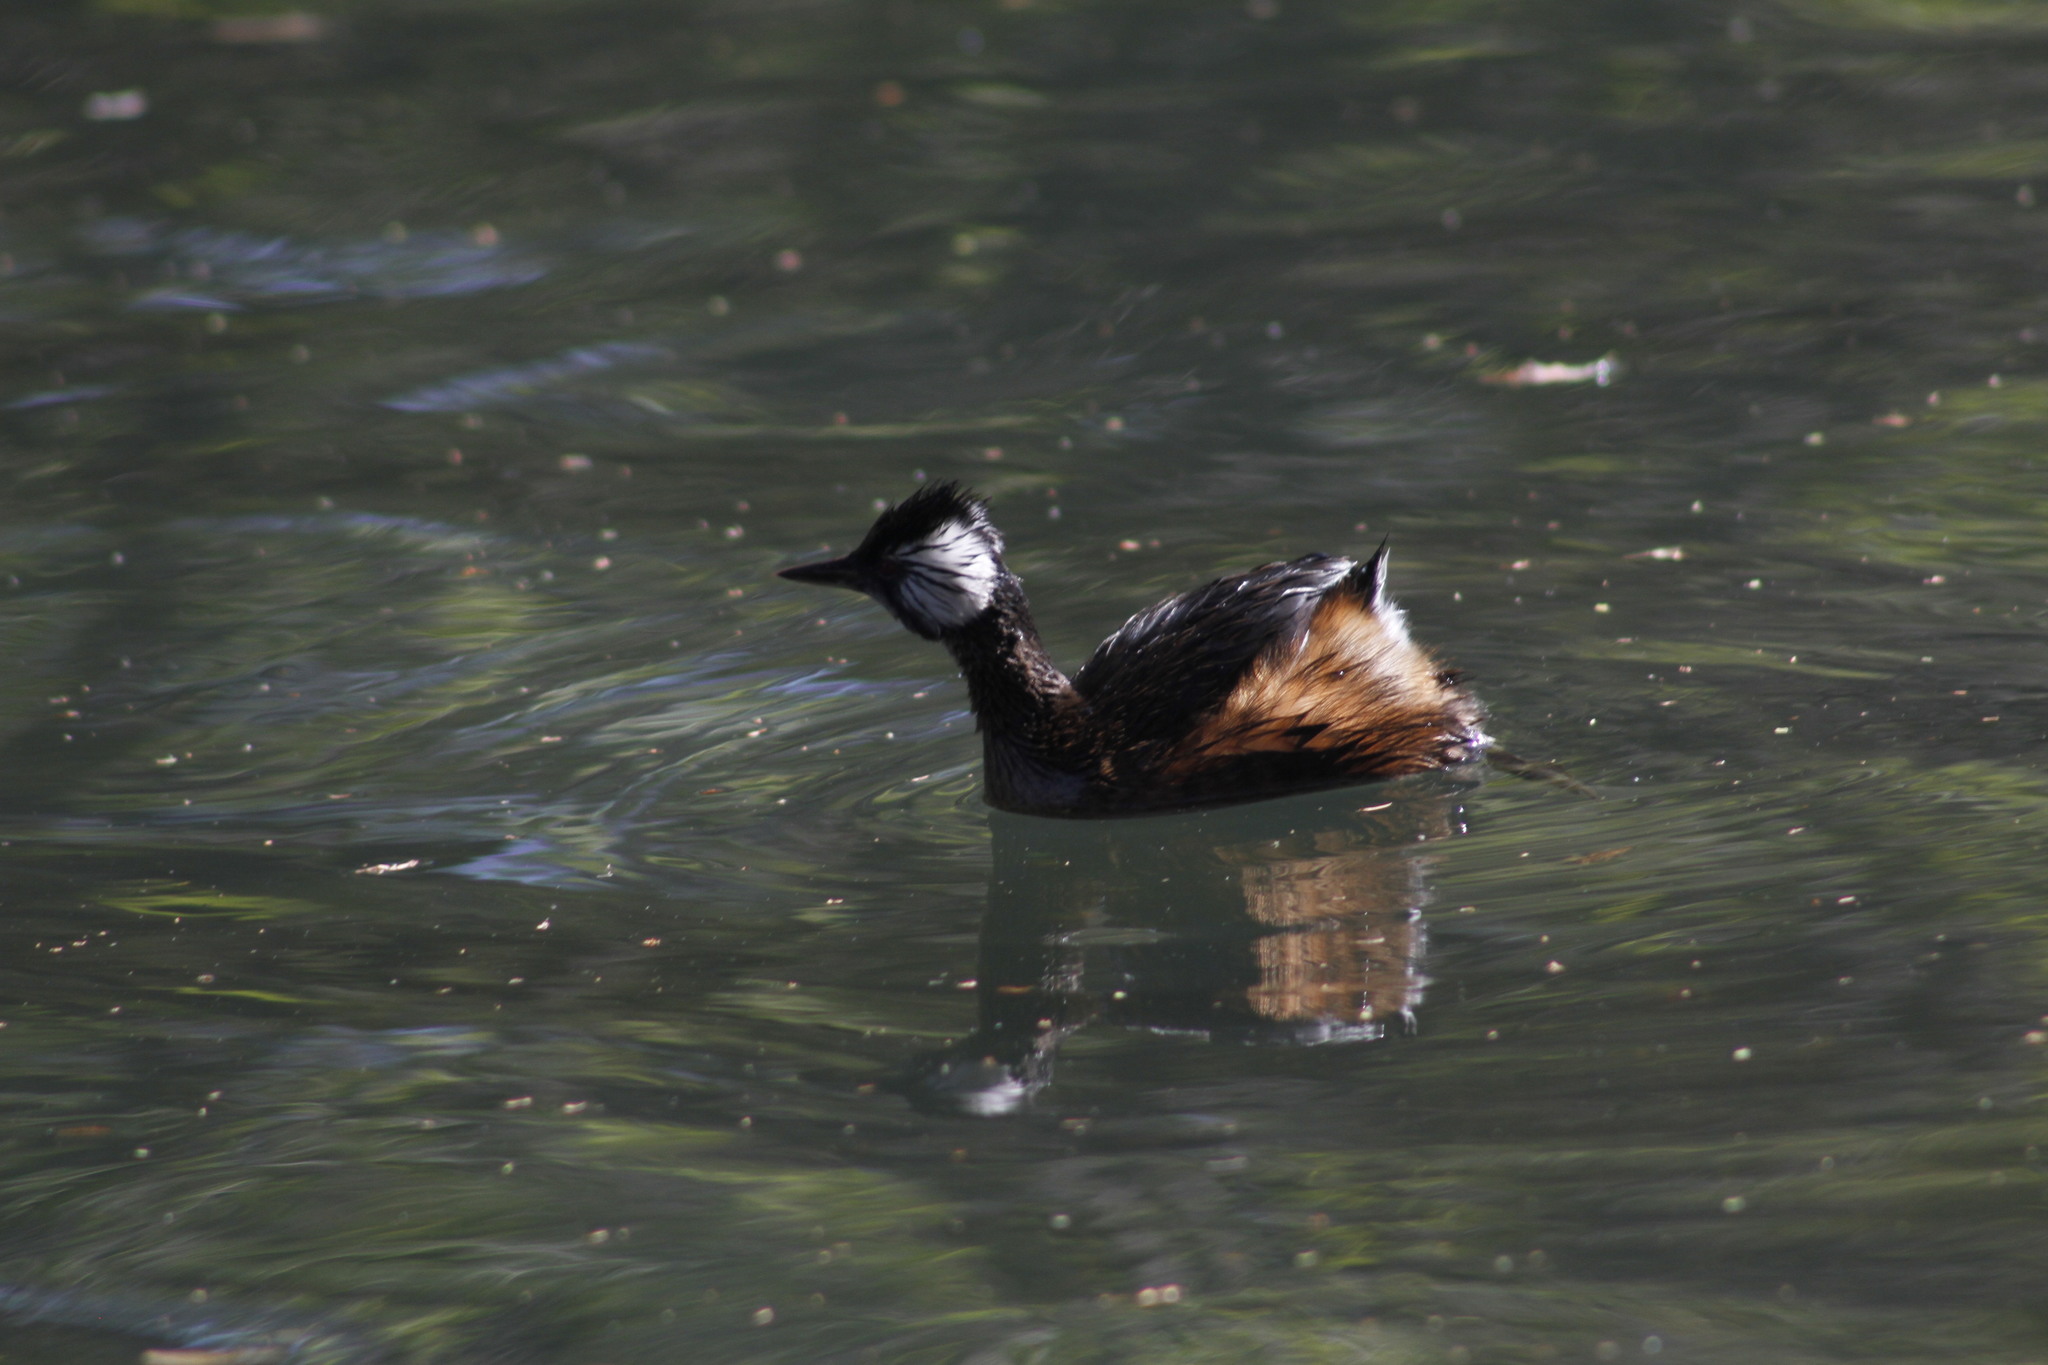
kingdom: Animalia
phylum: Chordata
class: Aves
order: Podicipediformes
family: Podicipedidae
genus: Rollandia
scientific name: Rollandia rolland
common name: White-tufted grebe
